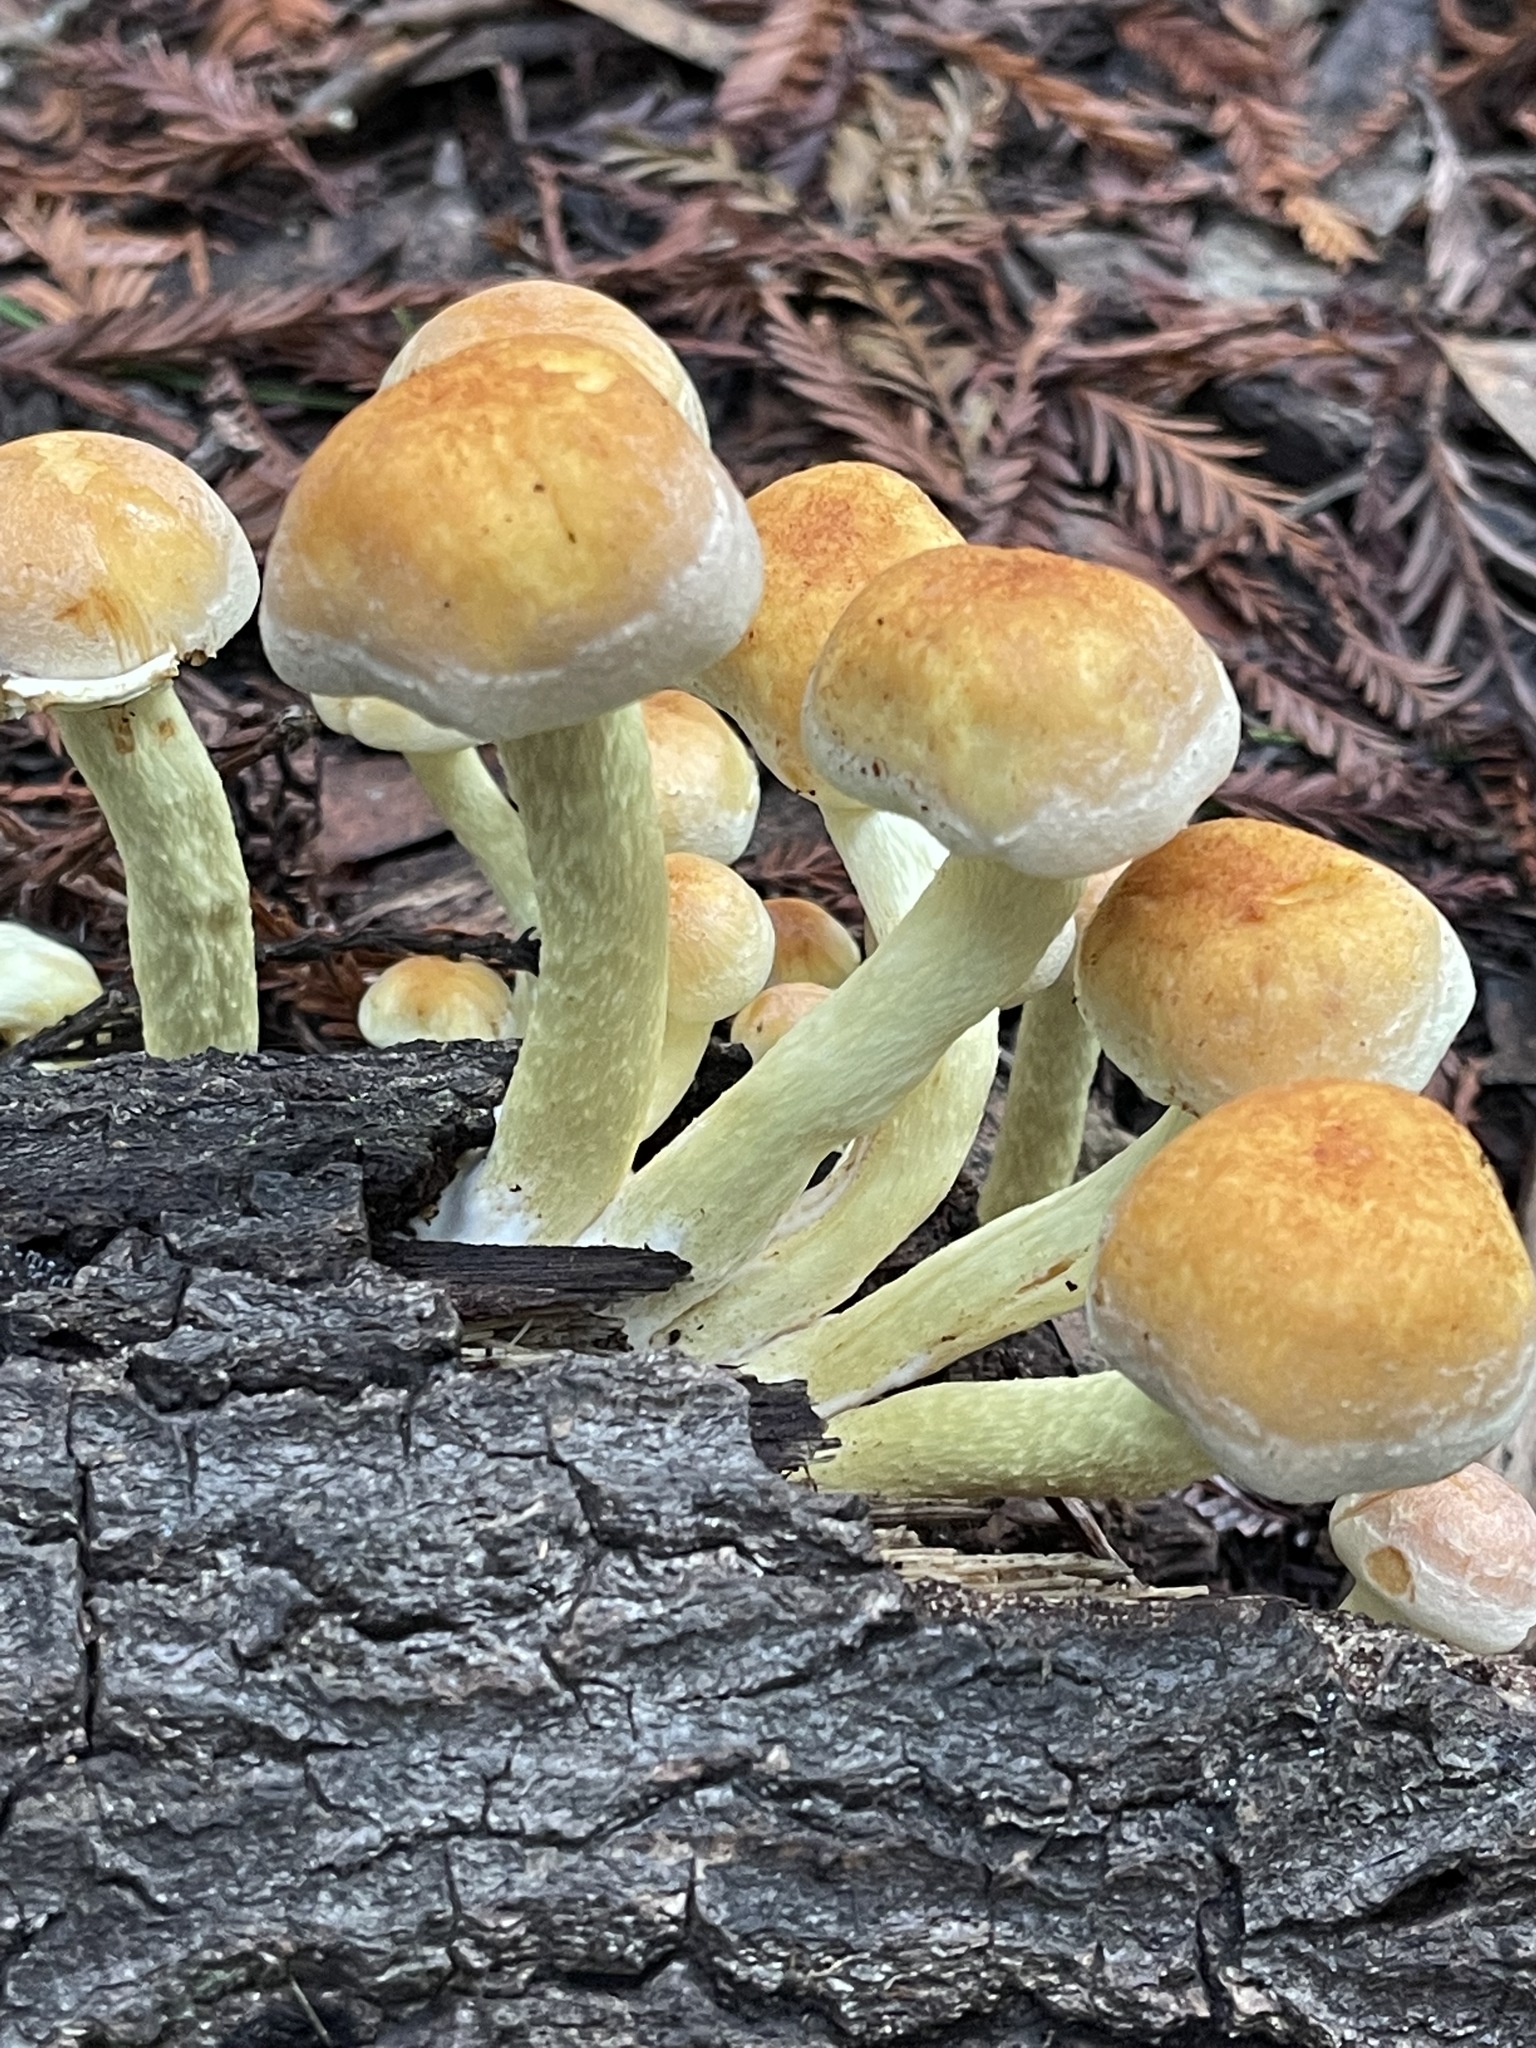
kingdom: Fungi
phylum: Basidiomycota
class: Agaricomycetes
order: Agaricales
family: Strophariaceae
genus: Hypholoma
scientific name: Hypholoma fasciculare
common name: Sulphur tuft
